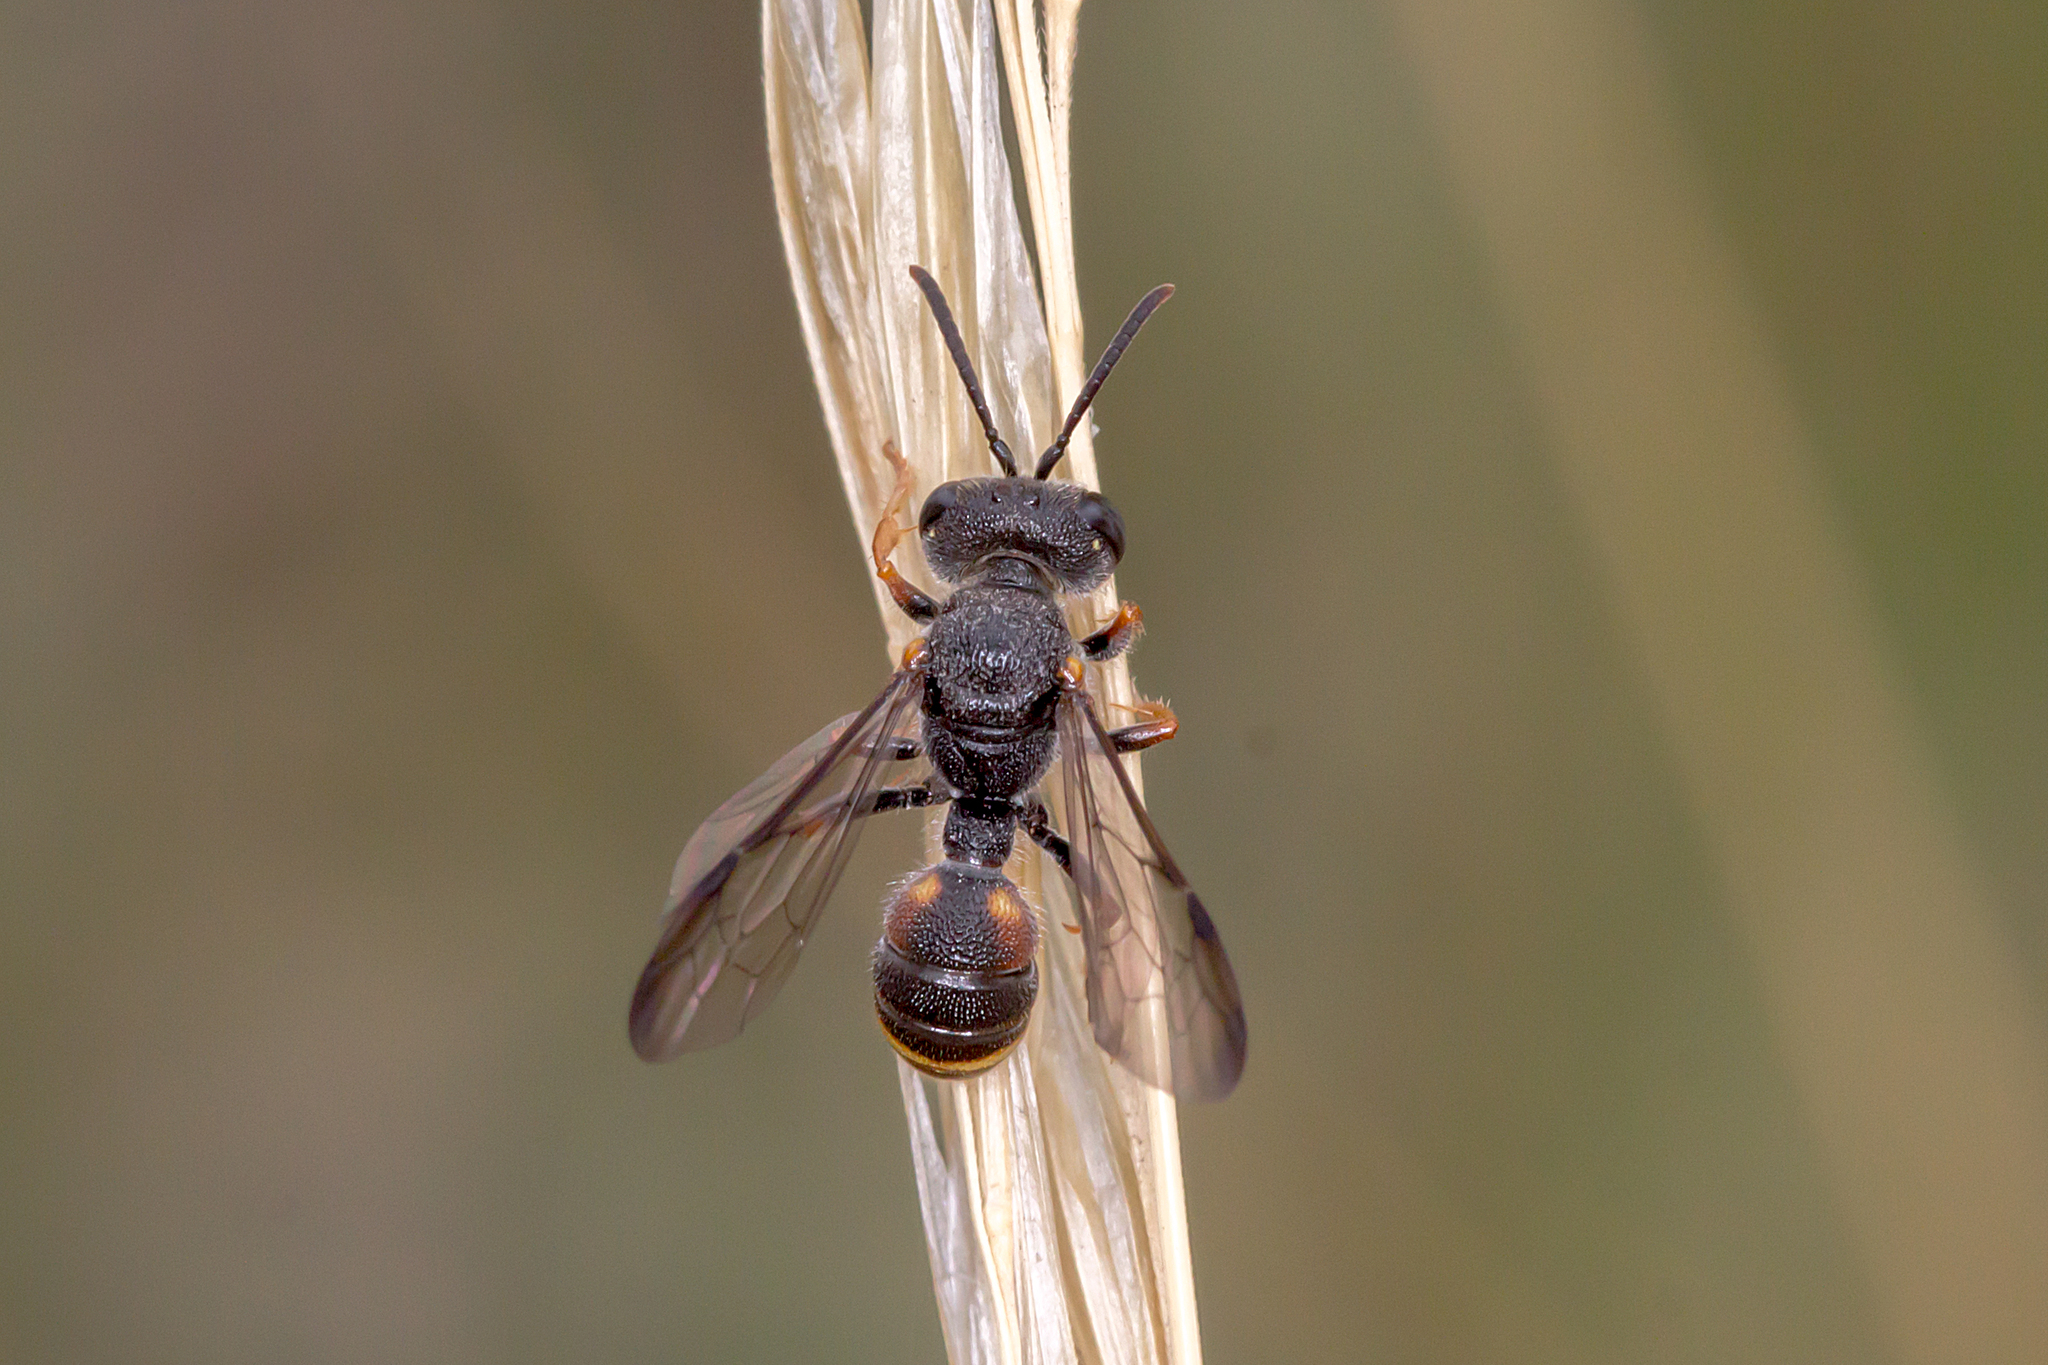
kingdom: Animalia
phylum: Arthropoda
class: Insecta
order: Hymenoptera
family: Crabronidae
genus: Cerceris
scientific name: Cerceris antipodes
